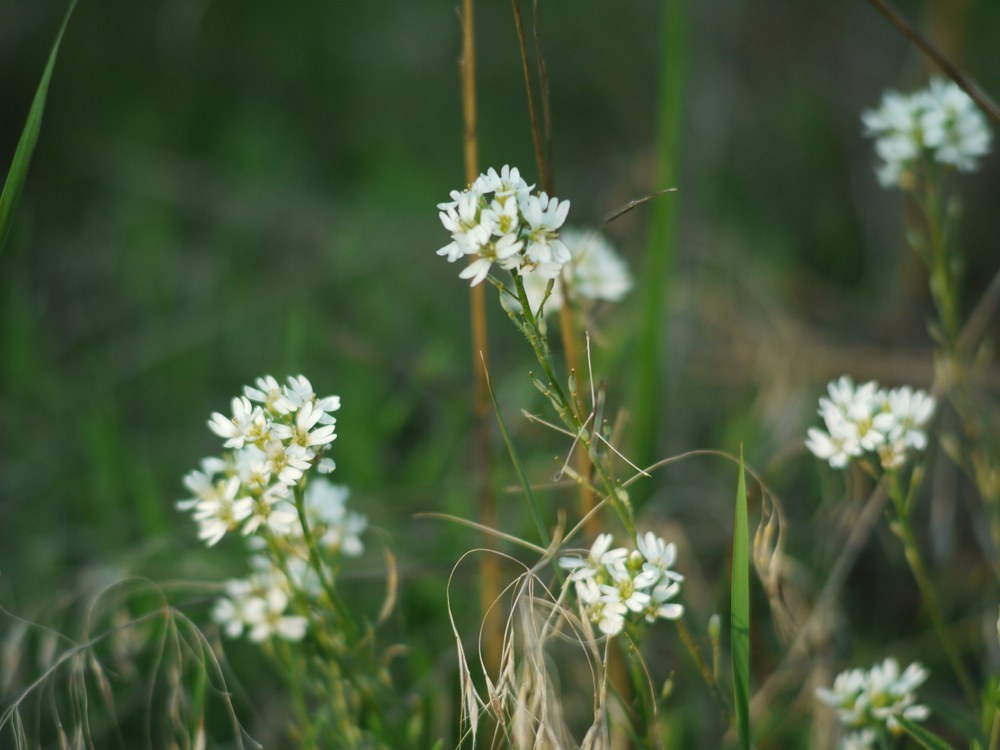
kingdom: Plantae
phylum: Tracheophyta
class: Magnoliopsida
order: Brassicales
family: Brassicaceae
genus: Berteroa
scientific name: Berteroa incana
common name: Hoary alison
